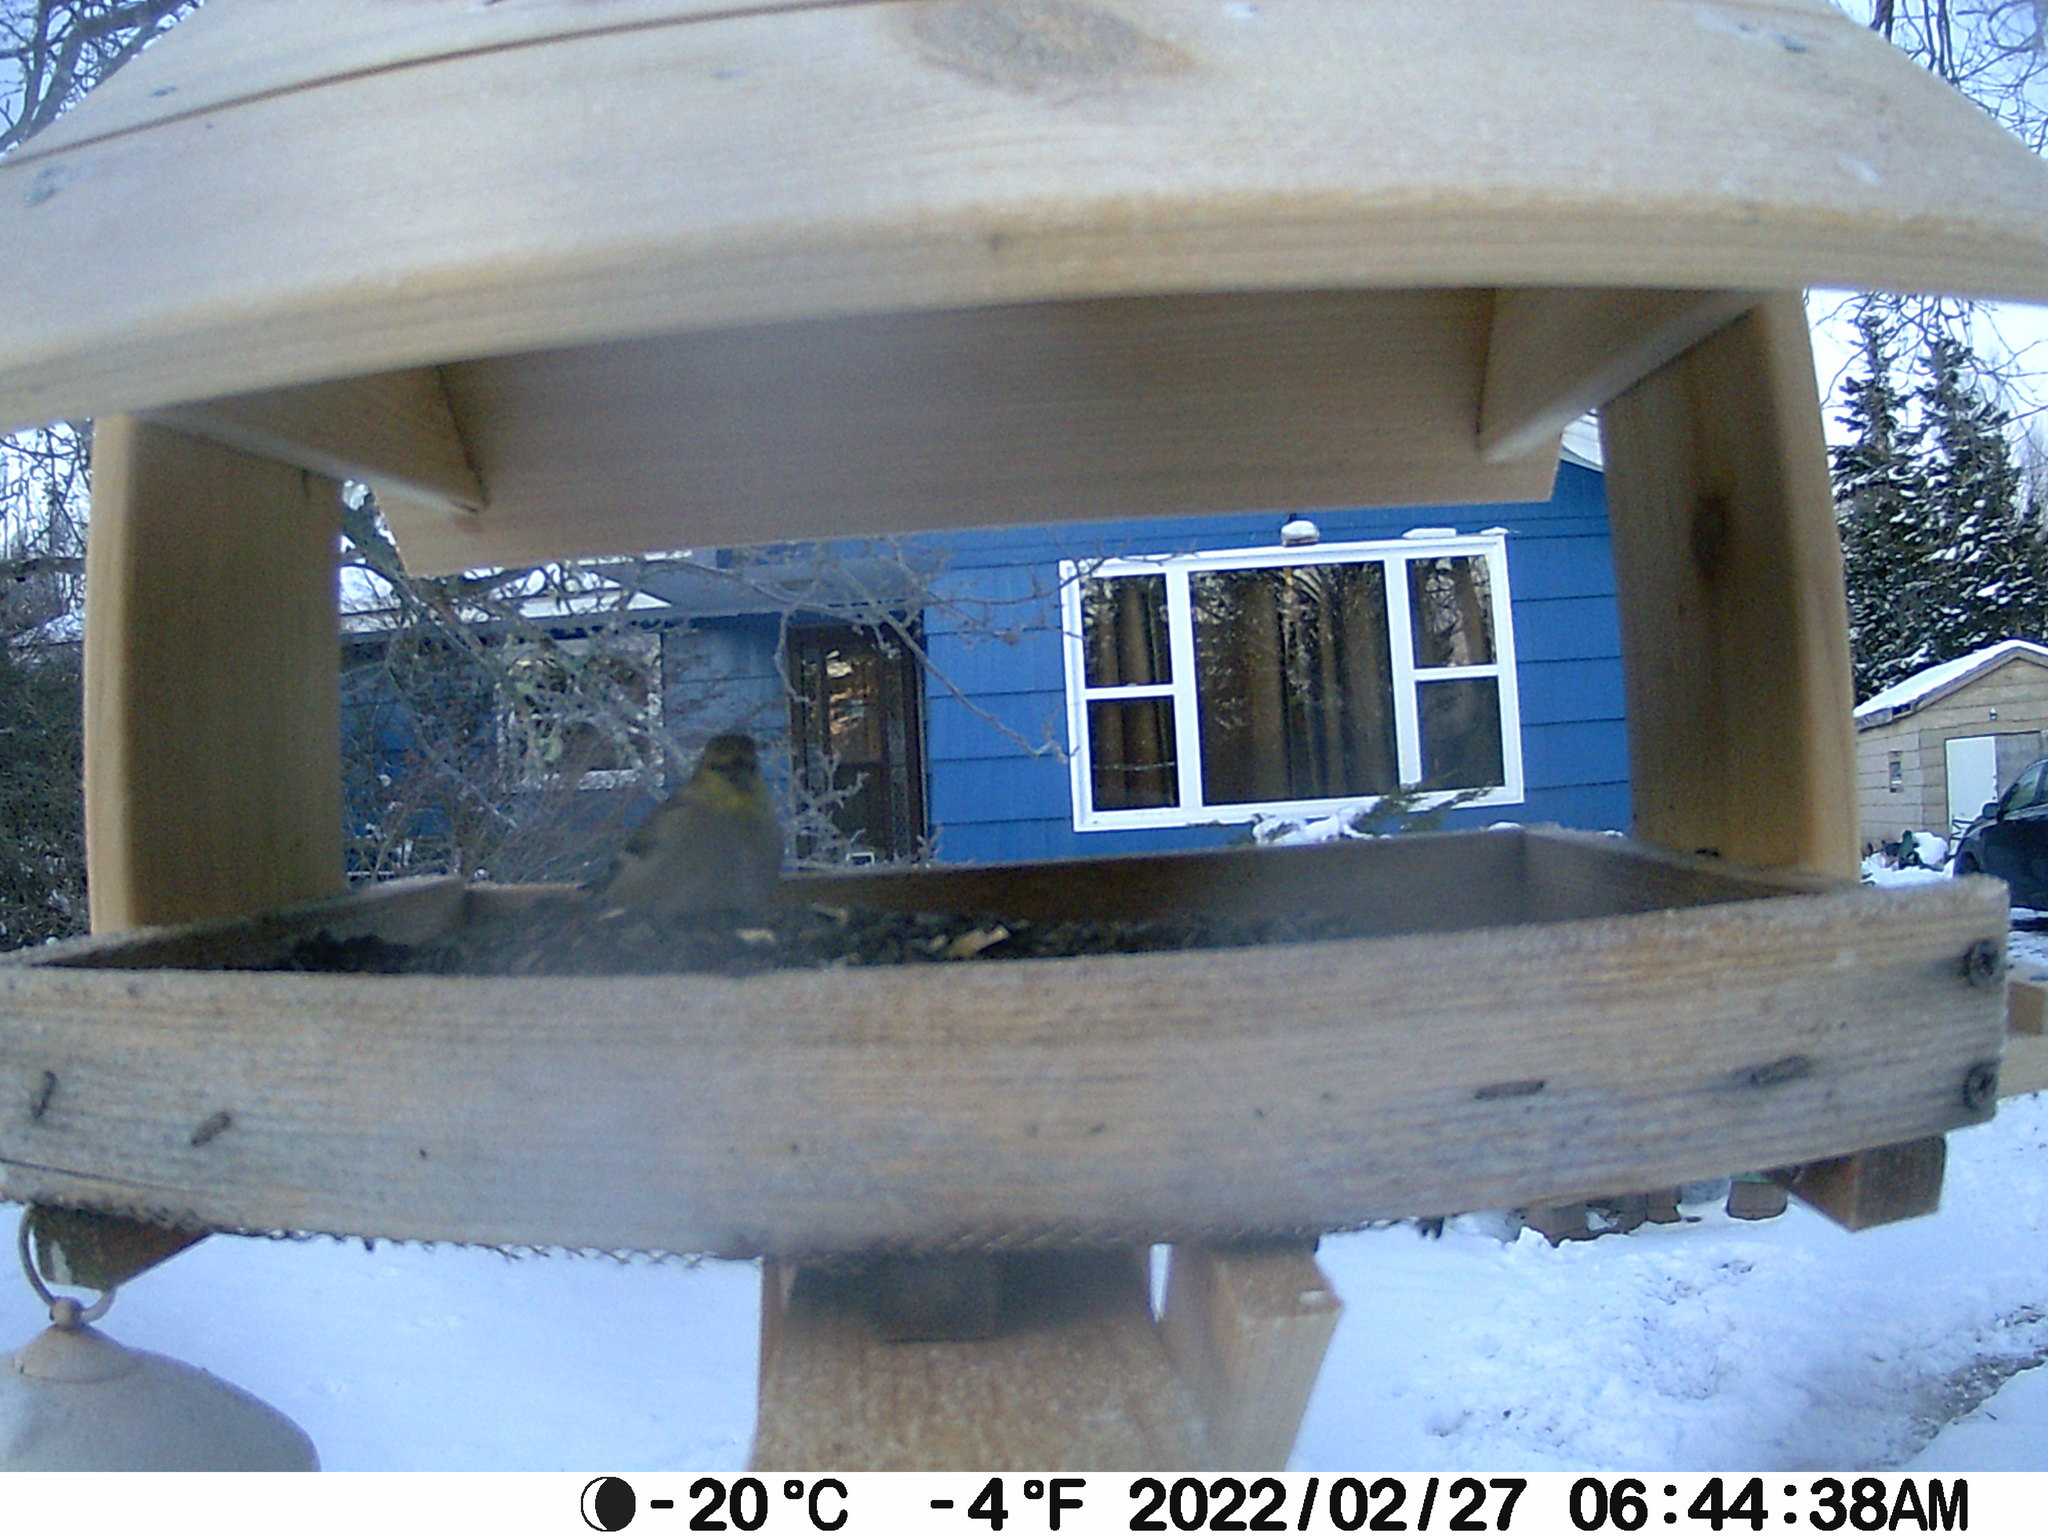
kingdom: Animalia
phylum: Chordata
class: Aves
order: Passeriformes
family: Fringillidae
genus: Spinus
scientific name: Spinus tristis
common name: American goldfinch
